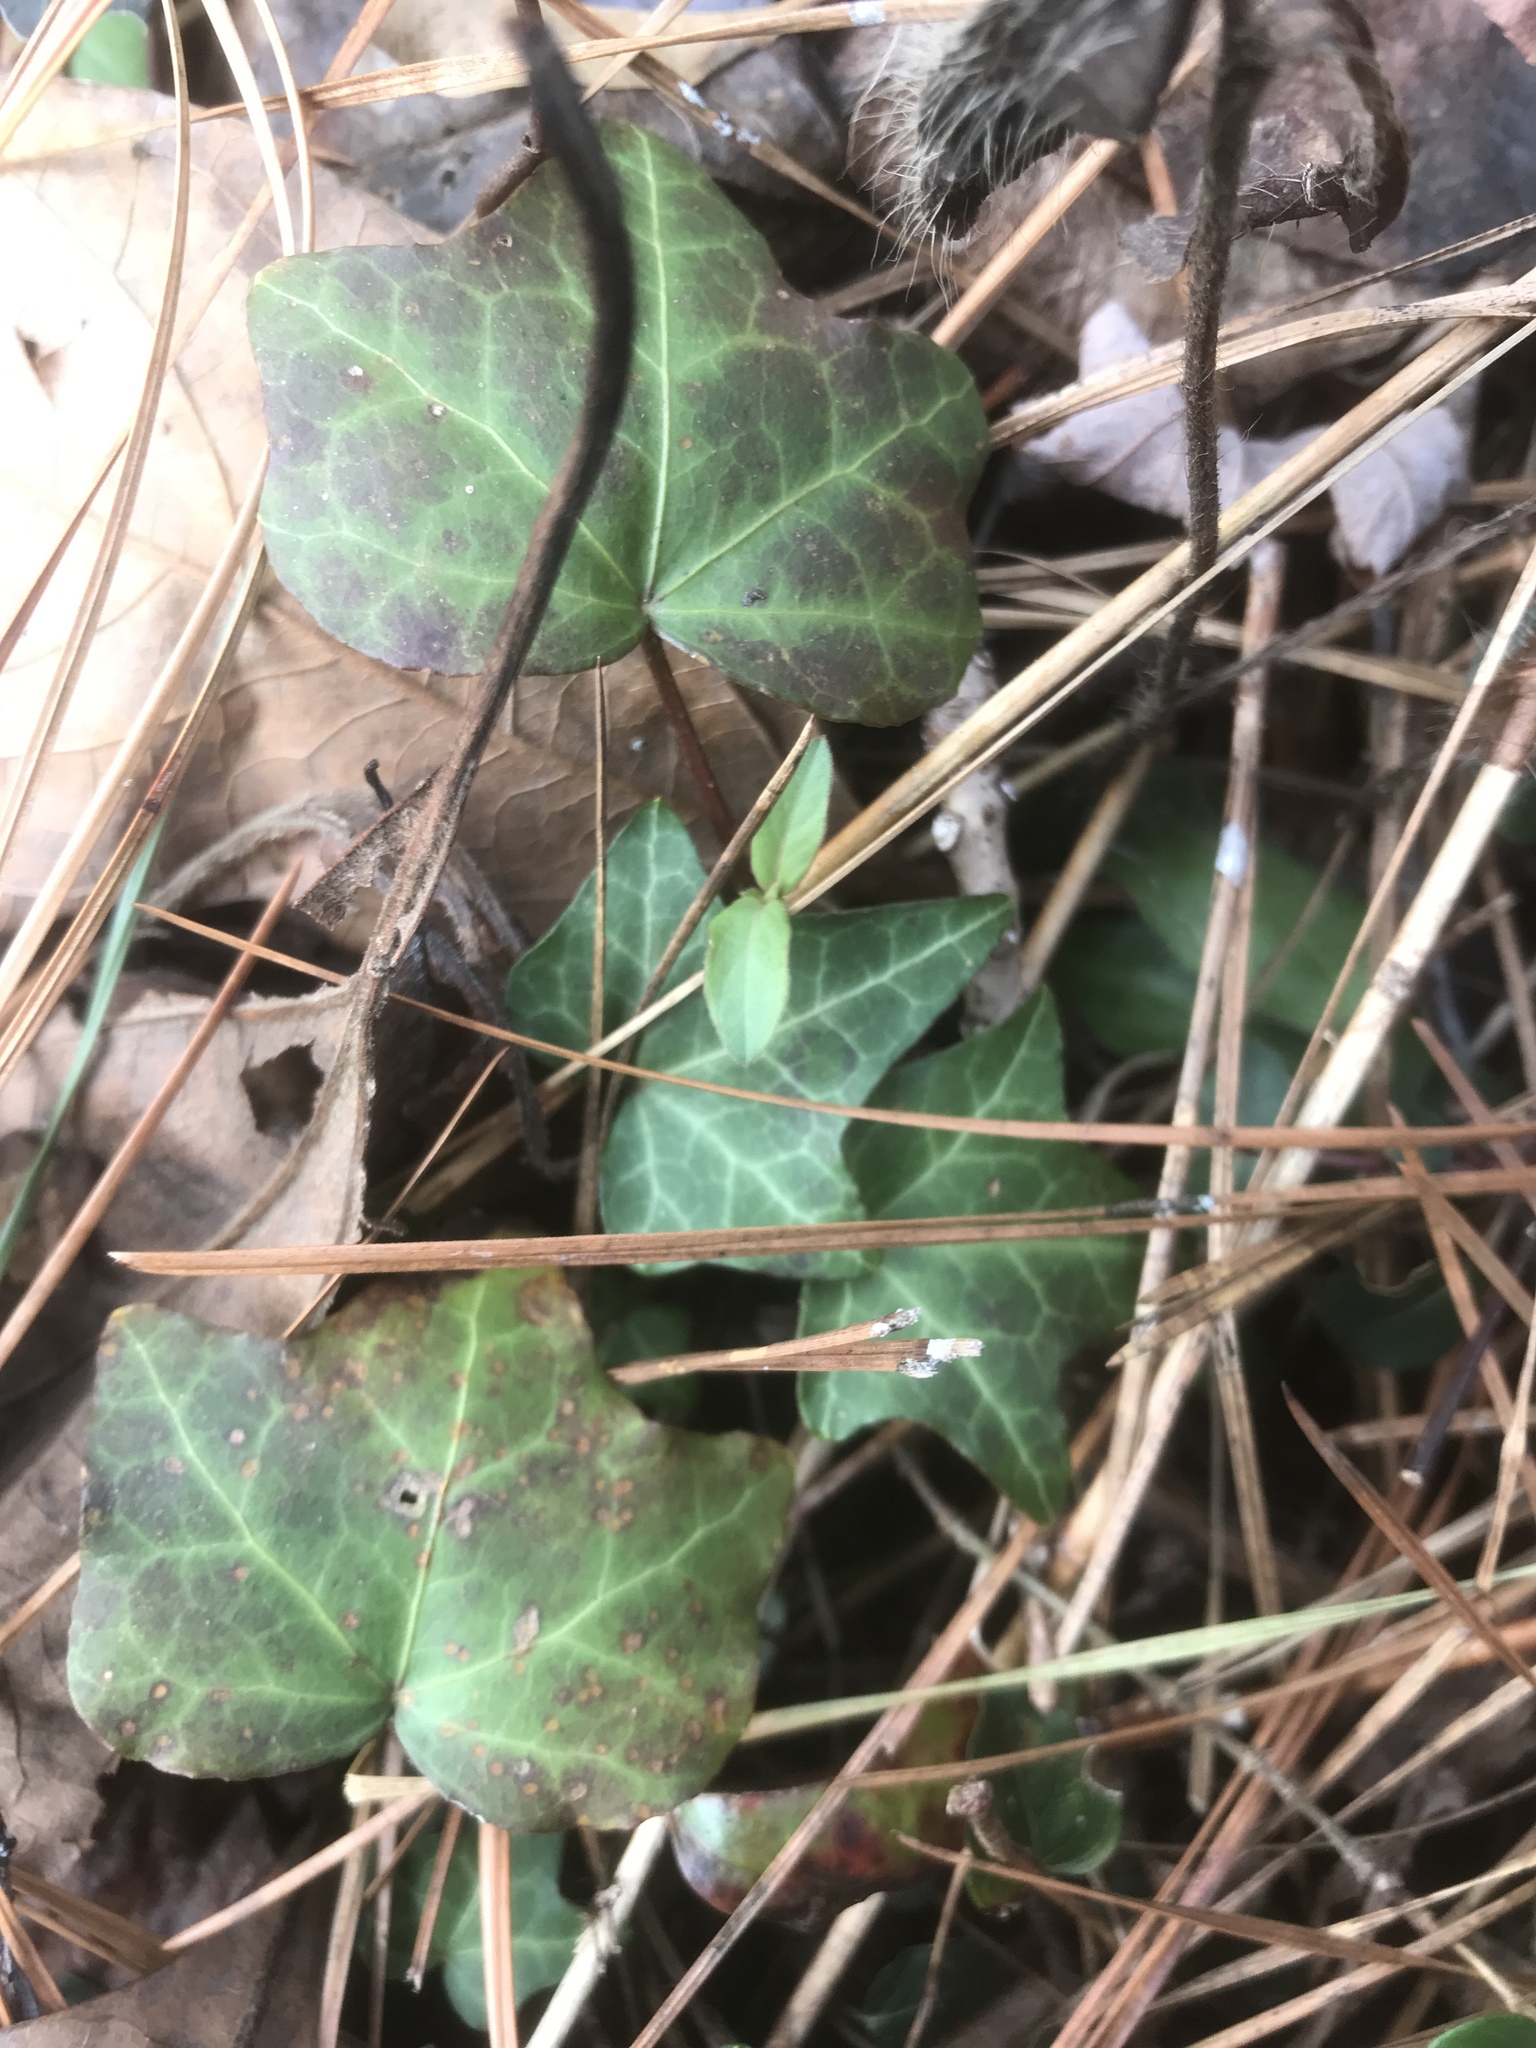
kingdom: Plantae
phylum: Tracheophyta
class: Magnoliopsida
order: Apiales
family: Araliaceae
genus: Hedera
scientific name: Hedera helix
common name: Ivy
